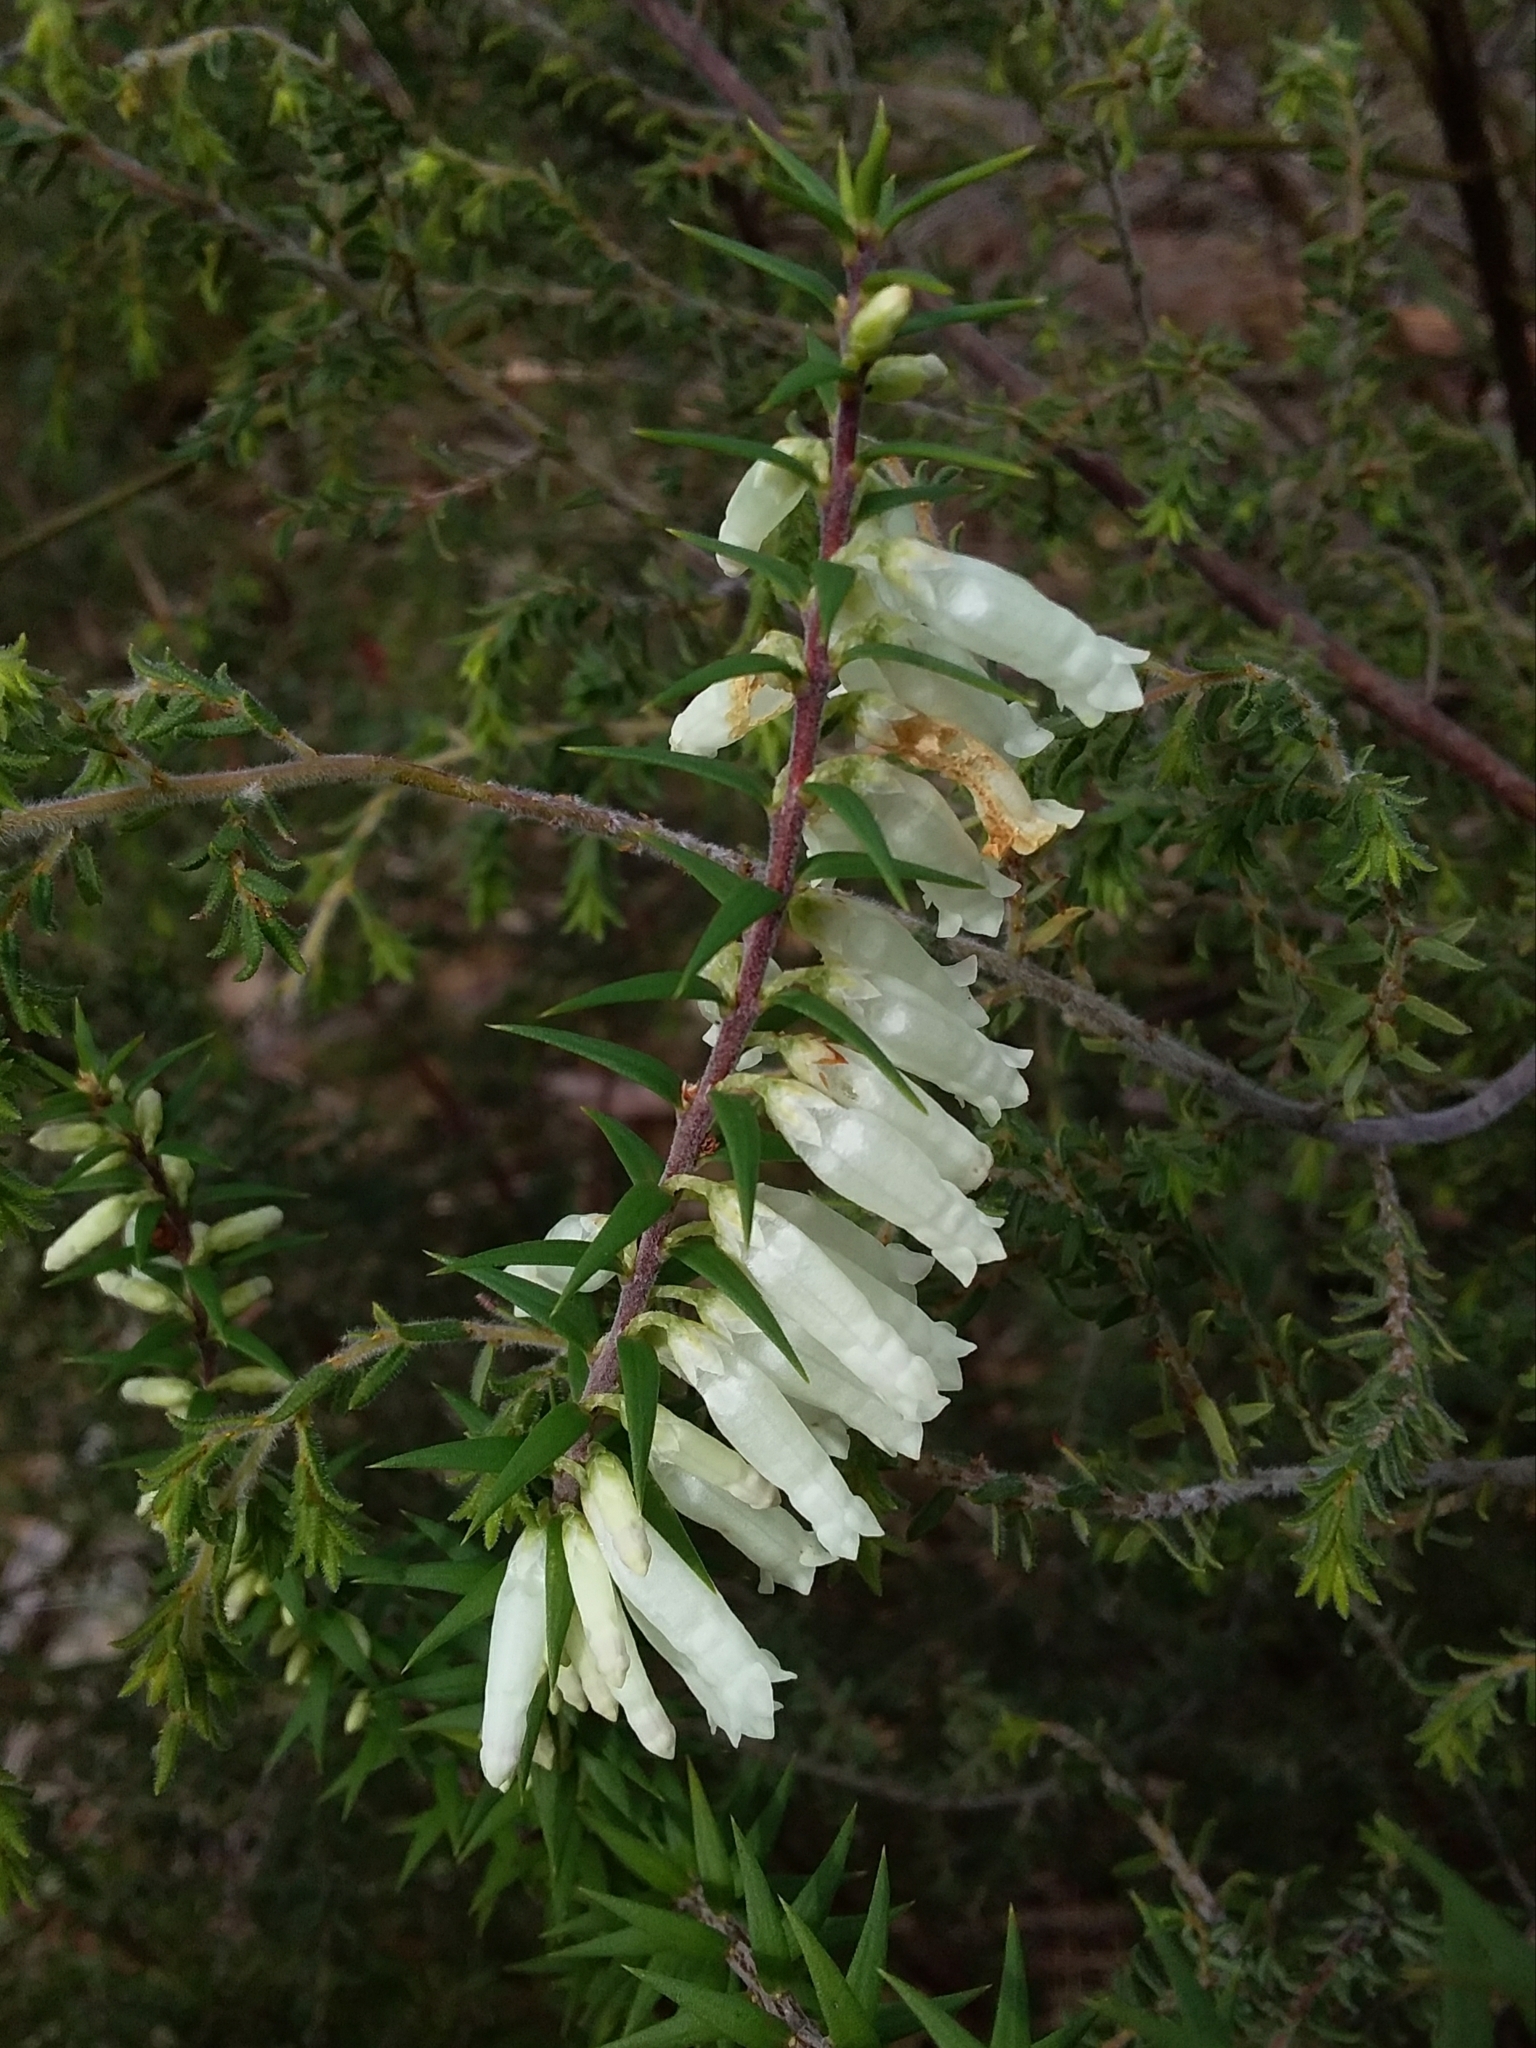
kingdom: Plantae
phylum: Tracheophyta
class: Magnoliopsida
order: Ericales
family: Ericaceae
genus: Epacris
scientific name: Epacris impressa
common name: Common-heath
